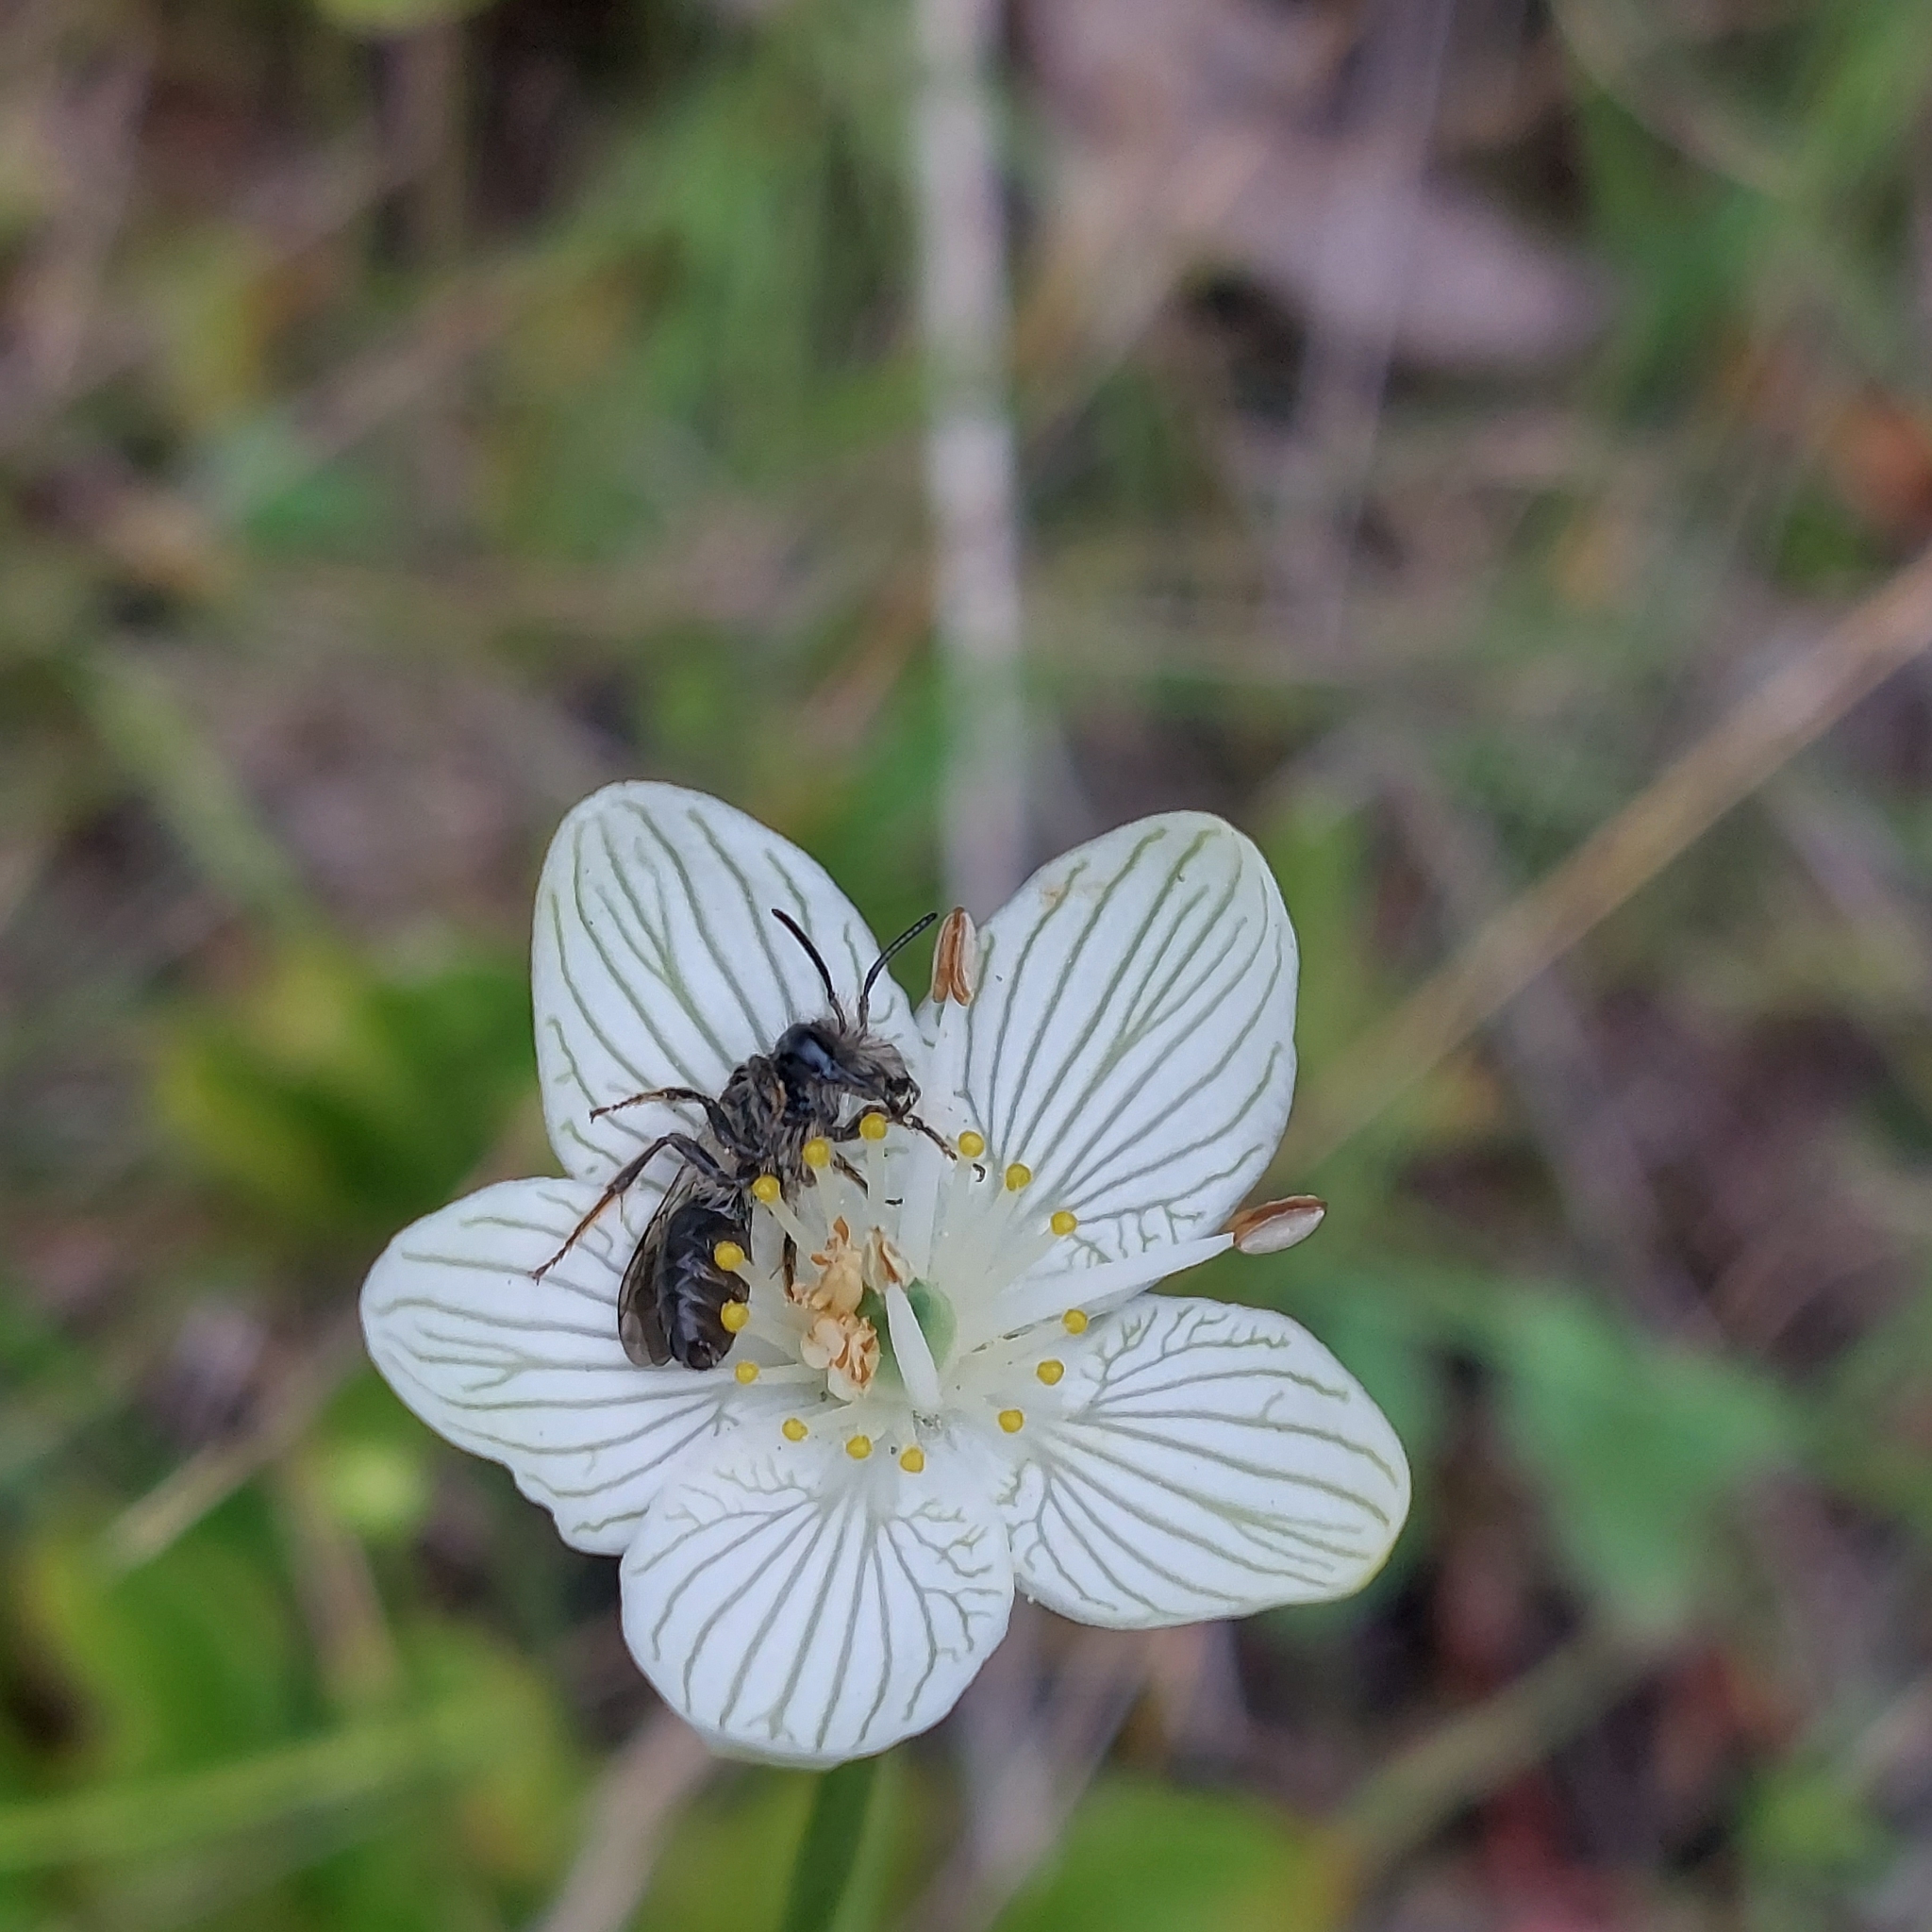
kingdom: Plantae
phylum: Tracheophyta
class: Magnoliopsida
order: Celastrales
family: Parnassiaceae
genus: Parnassia
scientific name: Parnassia glauca
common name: American grass-of-parnassus
